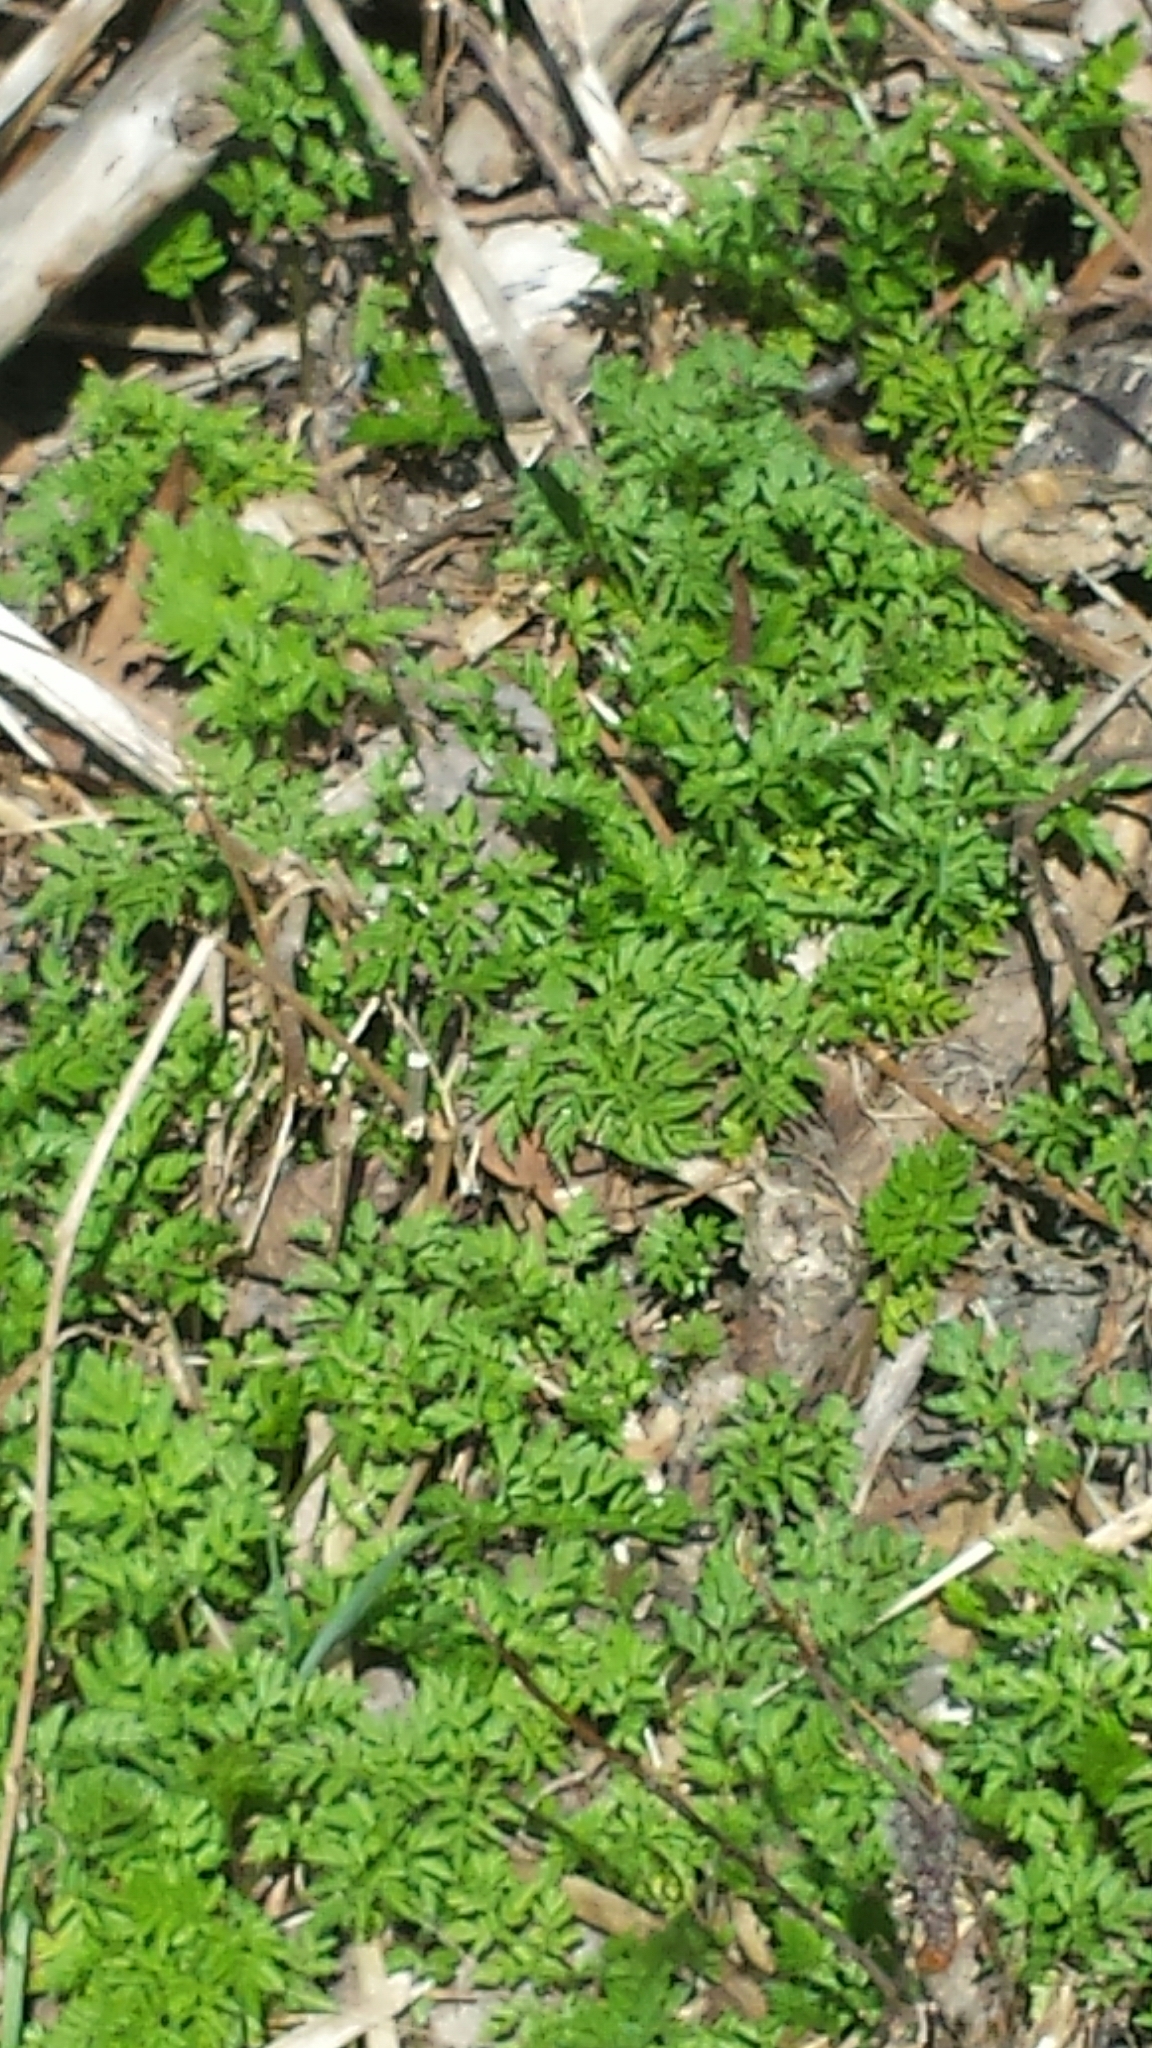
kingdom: Plantae
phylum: Tracheophyta
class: Magnoliopsida
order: Apiales
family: Apiaceae
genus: Anthriscus
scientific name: Anthriscus sylvestris
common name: Cow parsley
